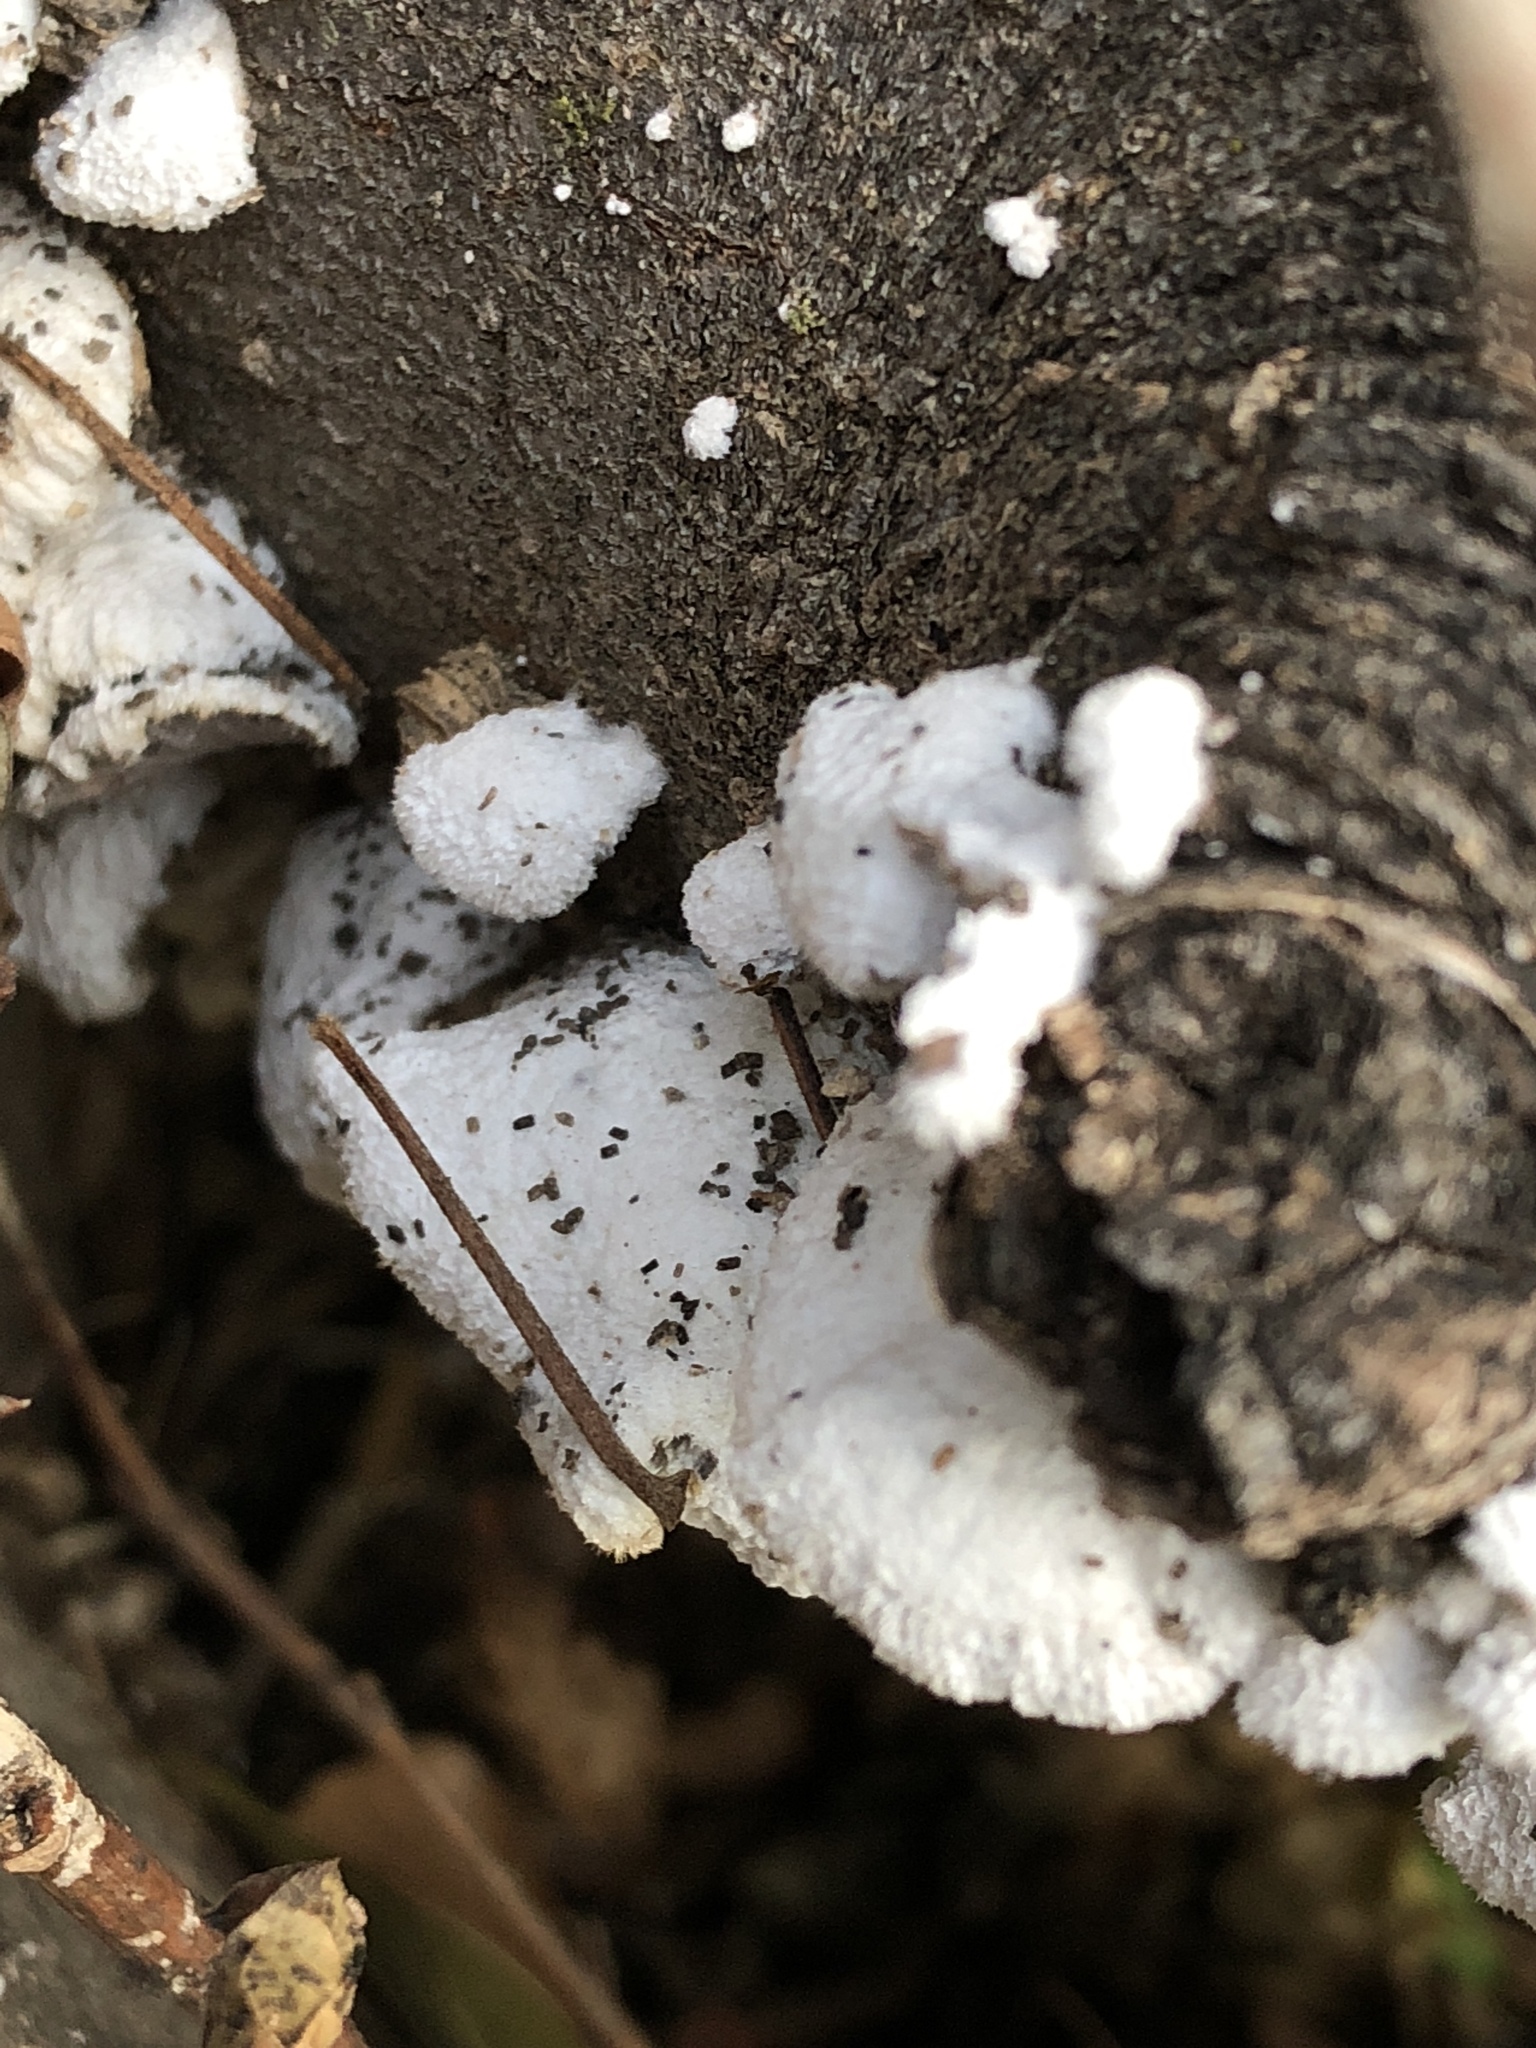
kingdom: Fungi
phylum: Basidiomycota
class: Agaricomycetes
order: Agaricales
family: Schizophyllaceae
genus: Schizophyllum
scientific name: Schizophyllum commune
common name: Common porecrust
